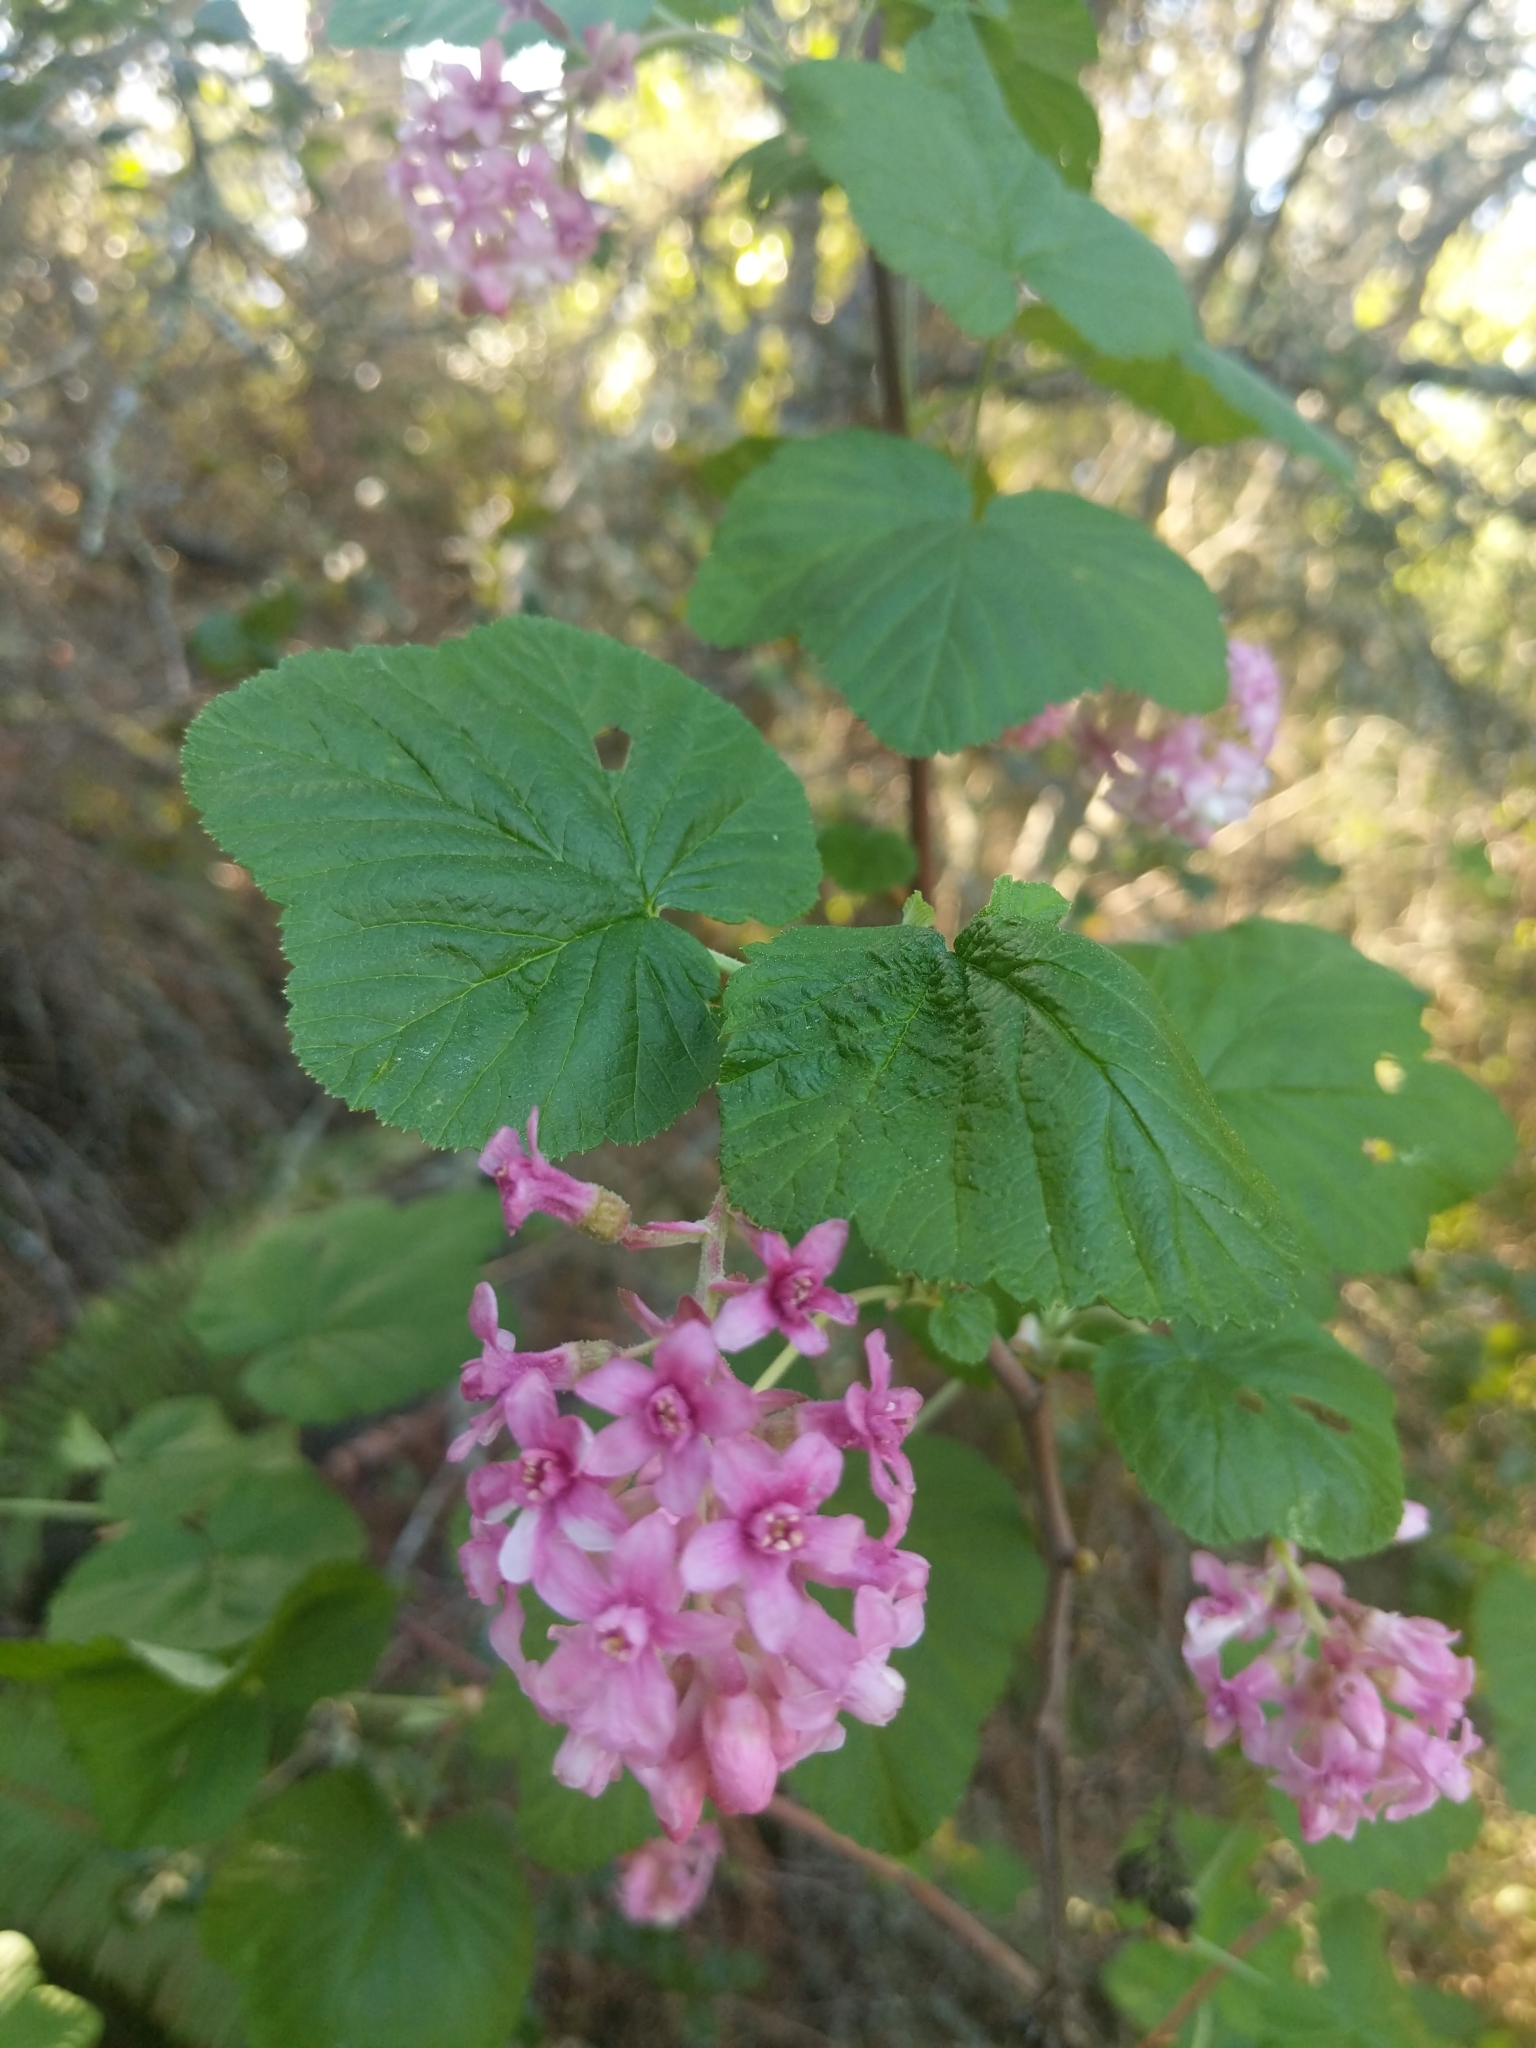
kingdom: Plantae
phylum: Tracheophyta
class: Magnoliopsida
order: Saxifragales
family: Grossulariaceae
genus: Ribes
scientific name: Ribes sanguineum
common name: Flowering currant
